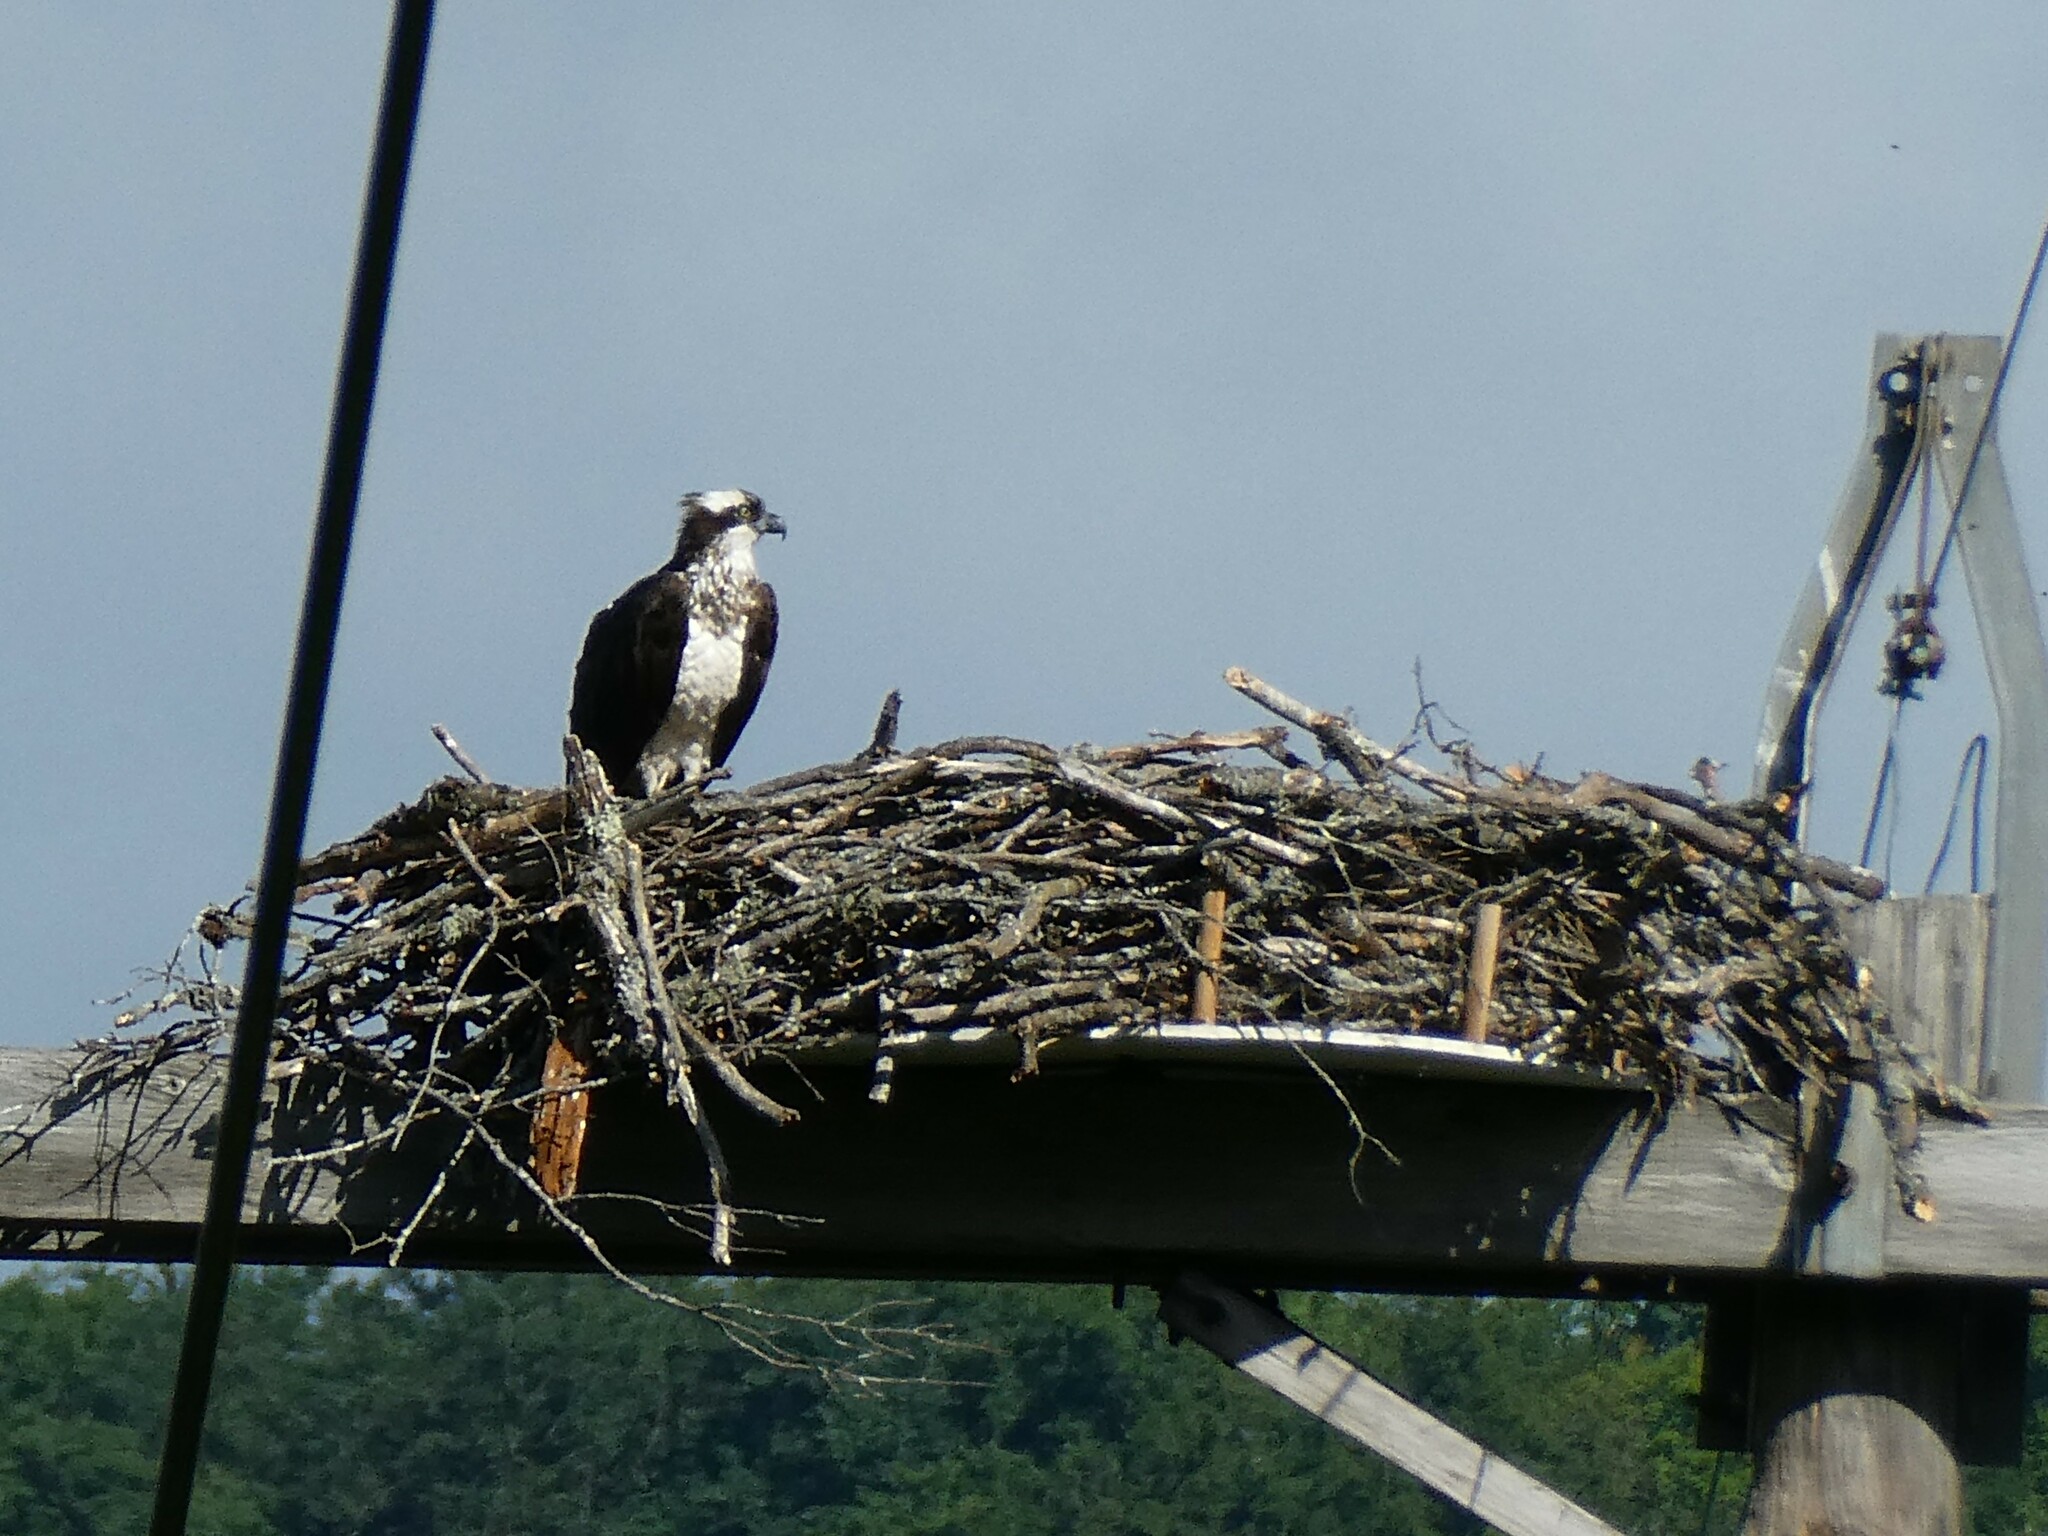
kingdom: Animalia
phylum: Chordata
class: Aves
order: Accipitriformes
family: Pandionidae
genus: Pandion
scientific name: Pandion haliaetus
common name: Osprey
